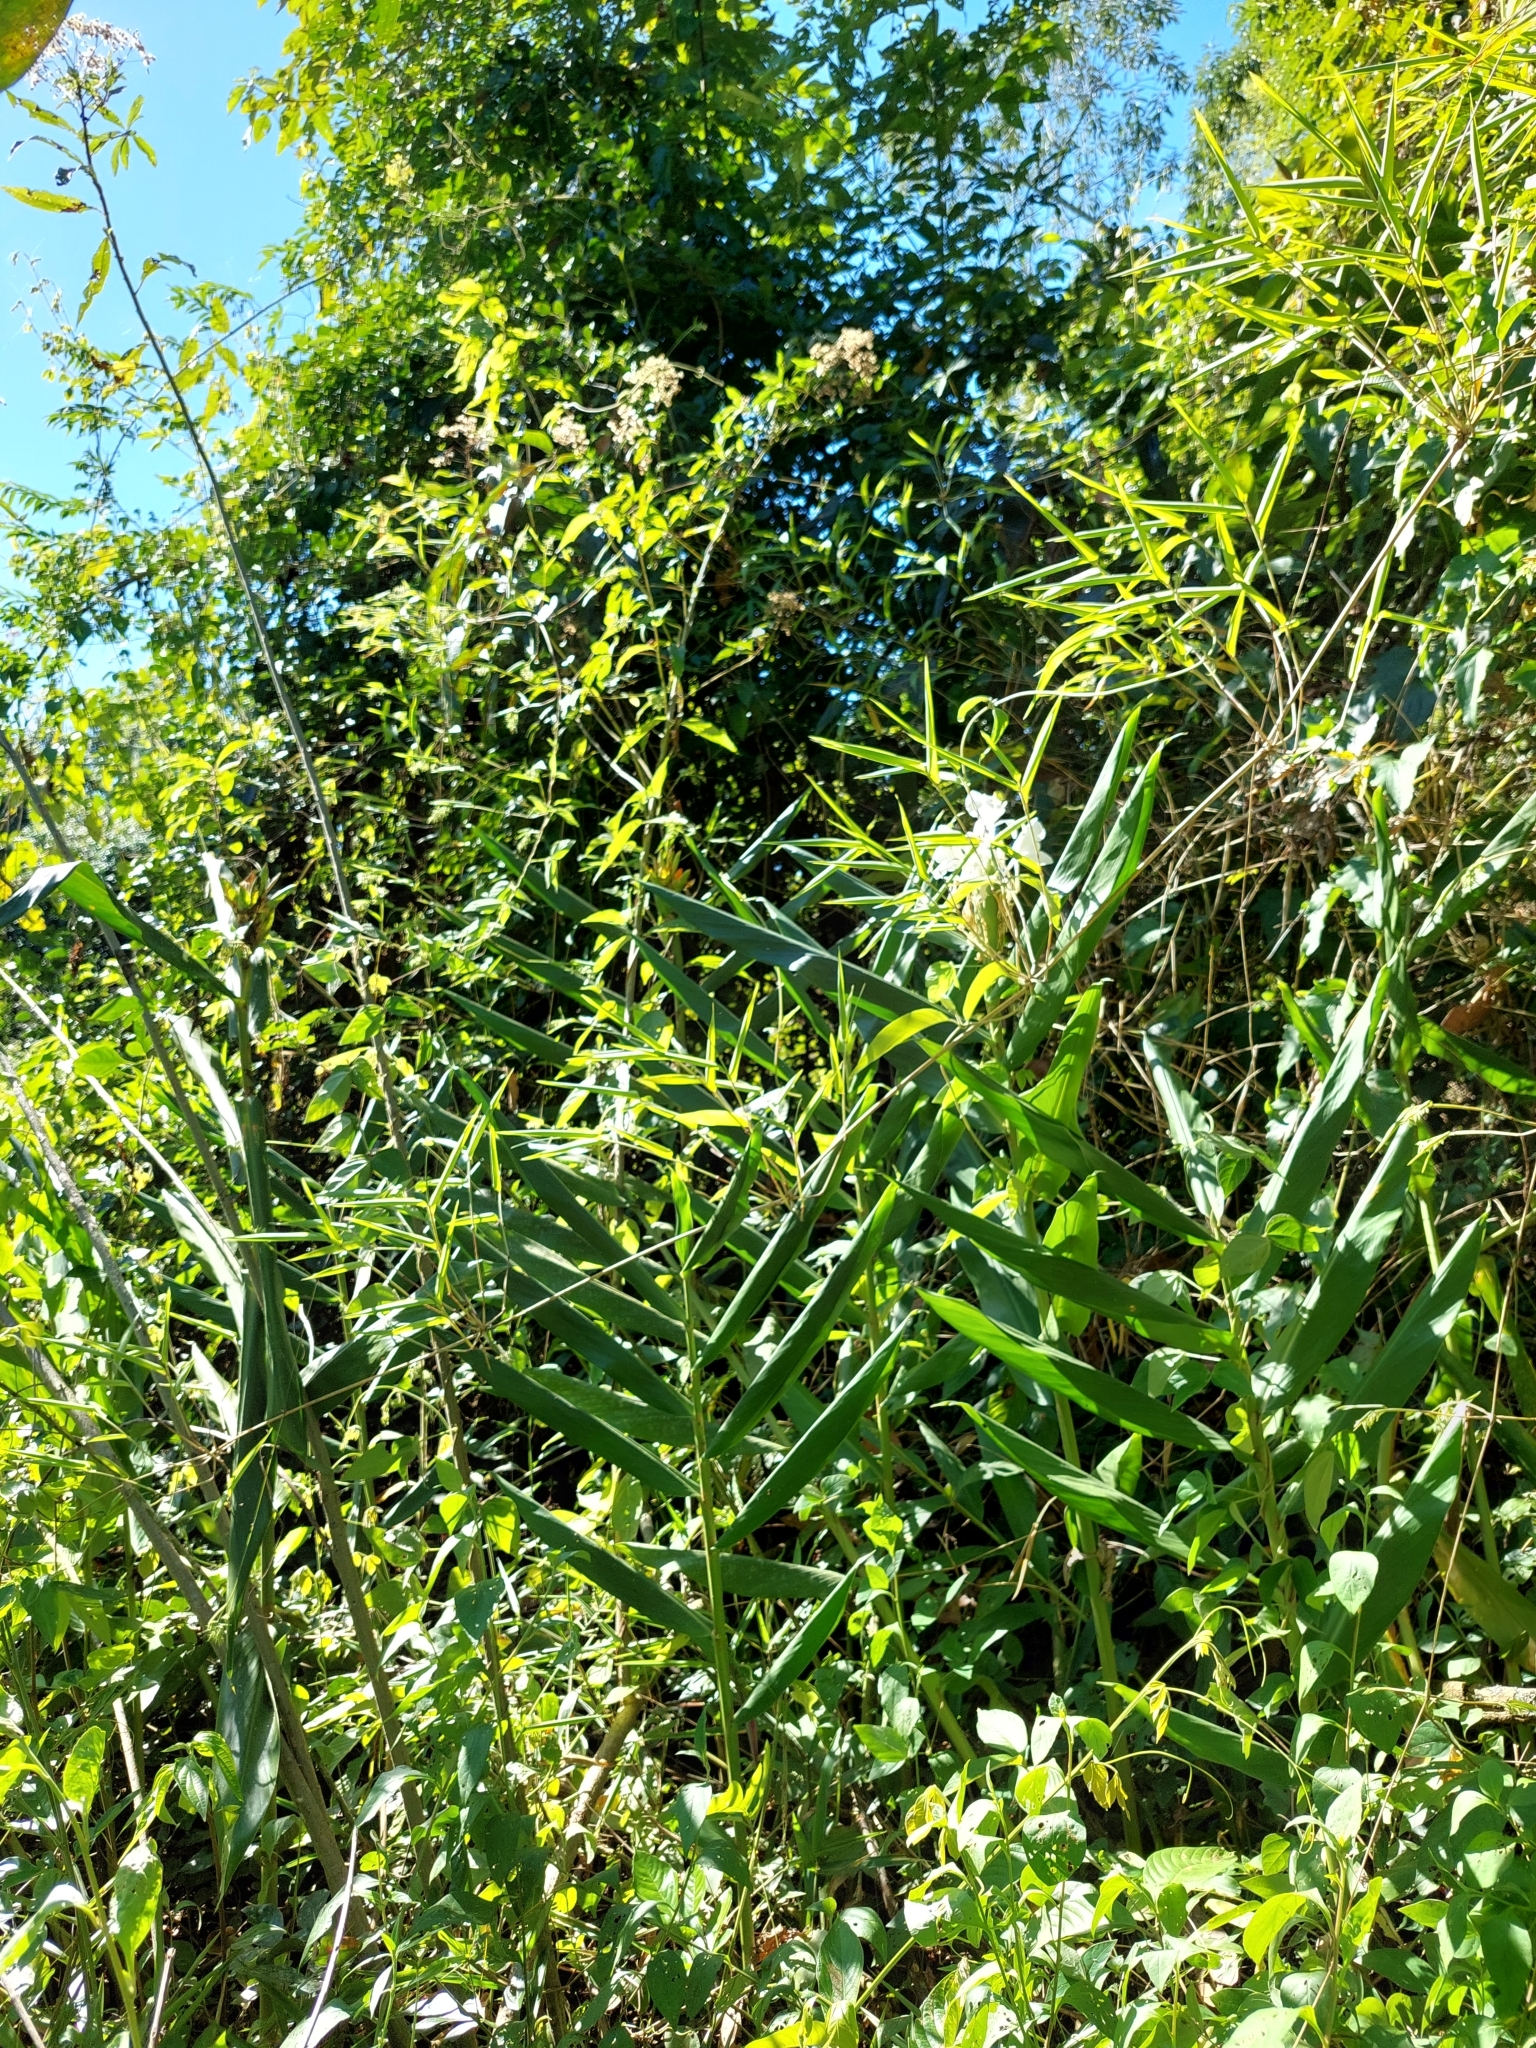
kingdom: Plantae
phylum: Tracheophyta
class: Liliopsida
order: Zingiberales
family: Zingiberaceae
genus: Hedychium
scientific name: Hedychium coronarium
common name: White garland-lily
